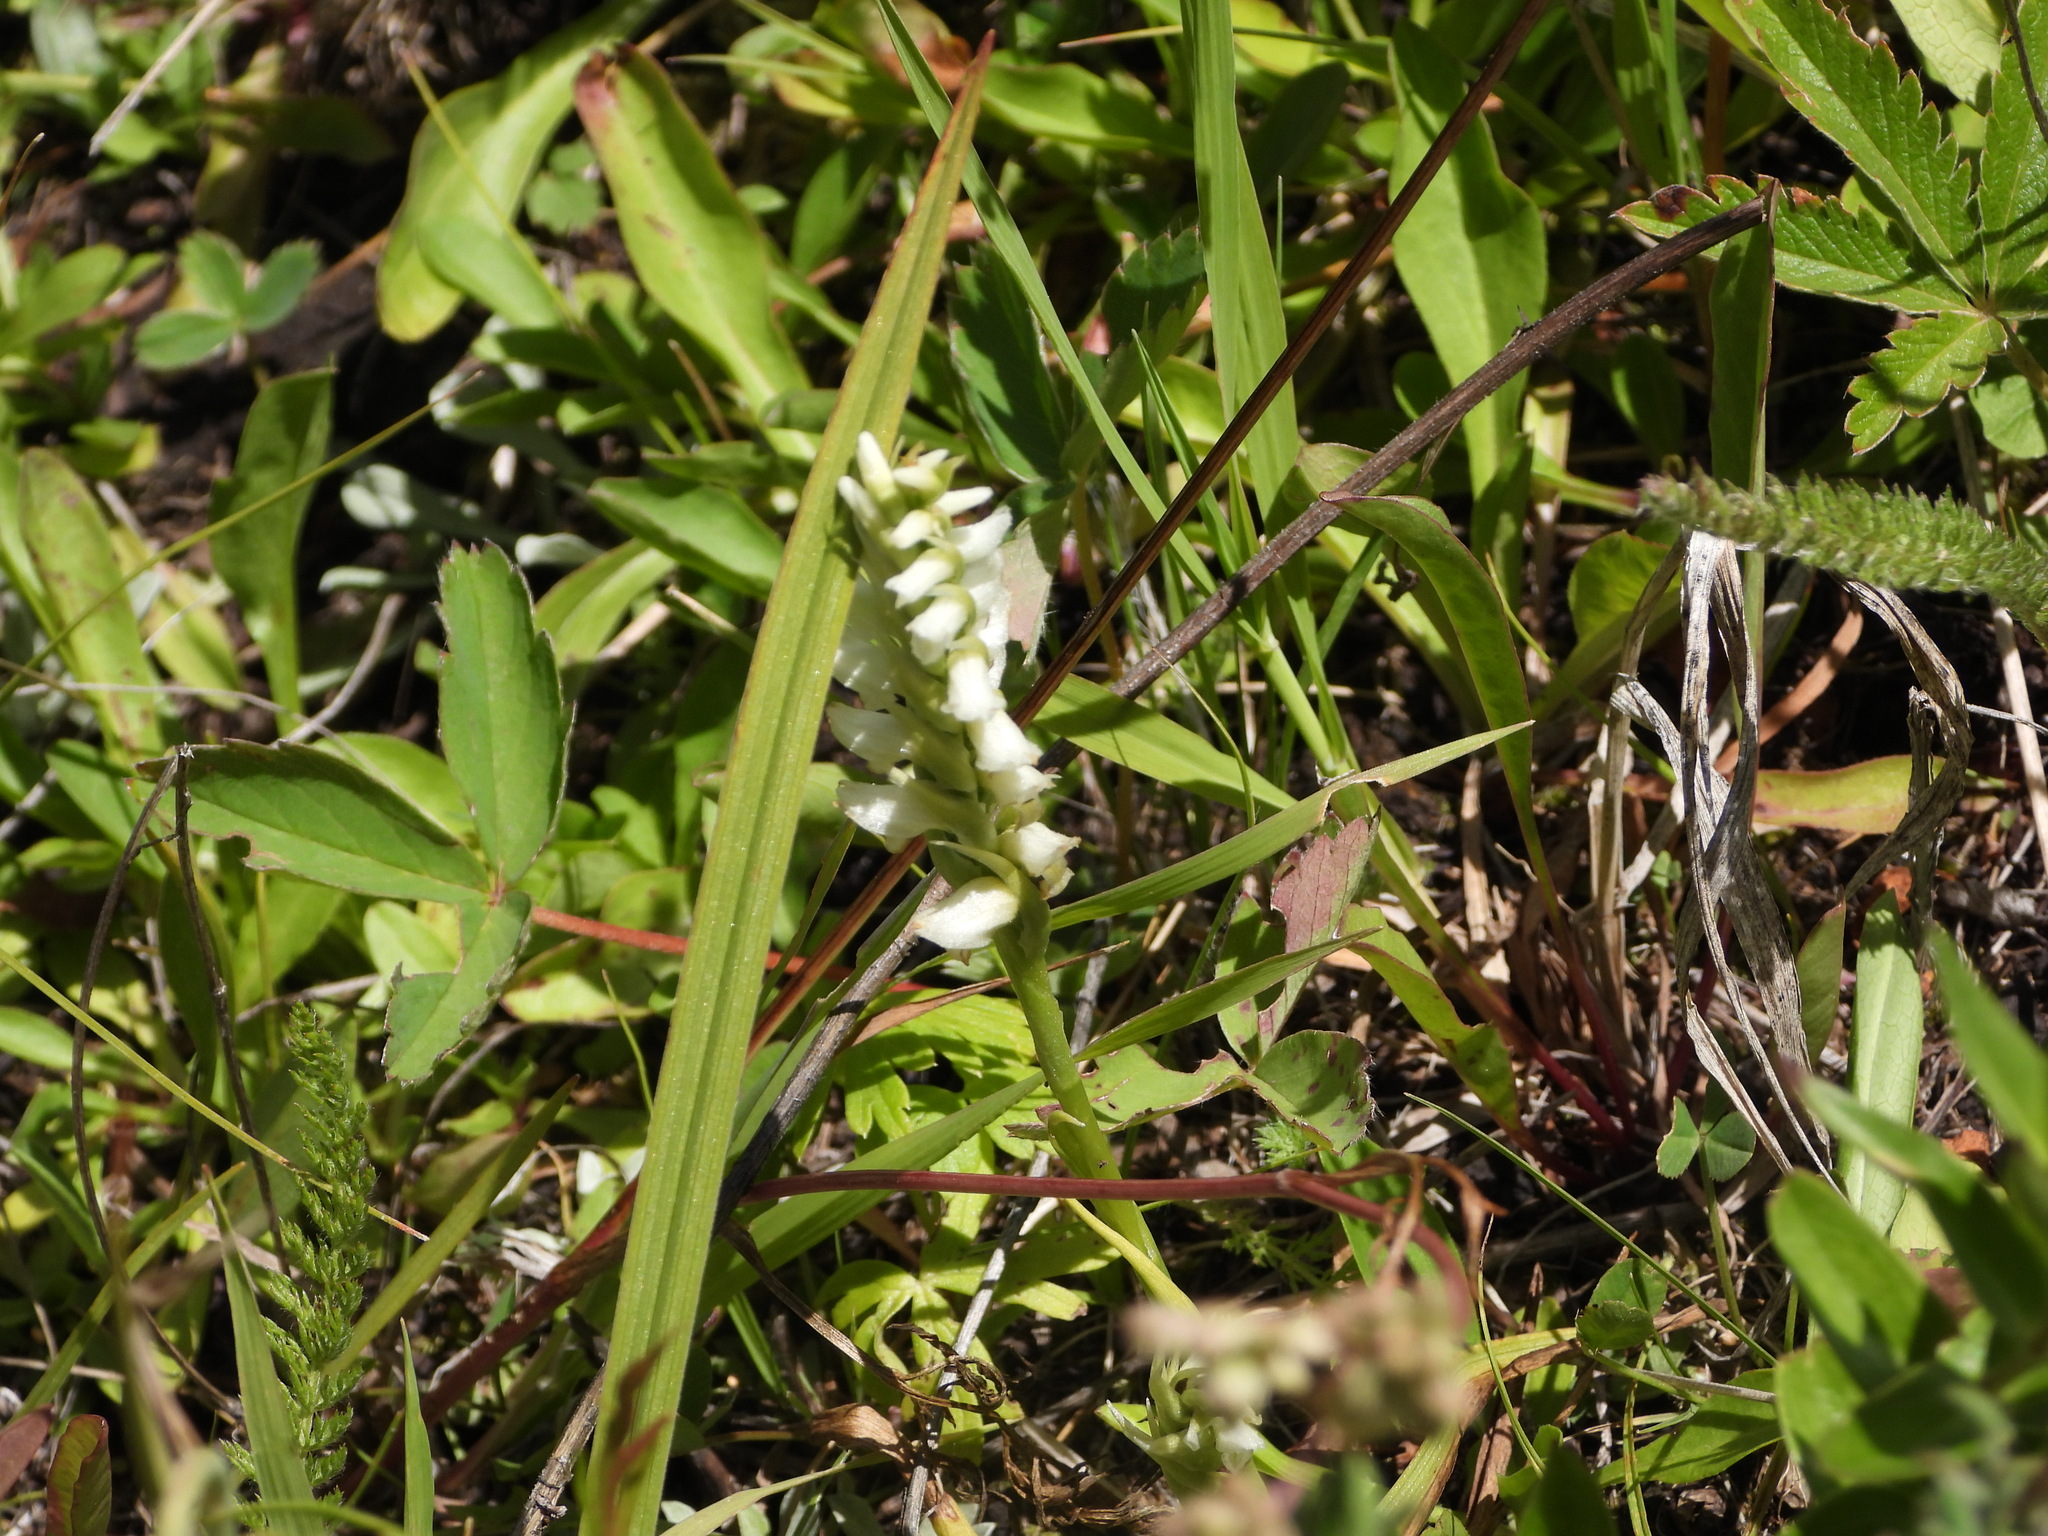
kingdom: Plantae
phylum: Tracheophyta
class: Liliopsida
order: Asparagales
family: Orchidaceae
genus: Spiranthes
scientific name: Spiranthes romanzoffiana
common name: Irish lady's-tresses
